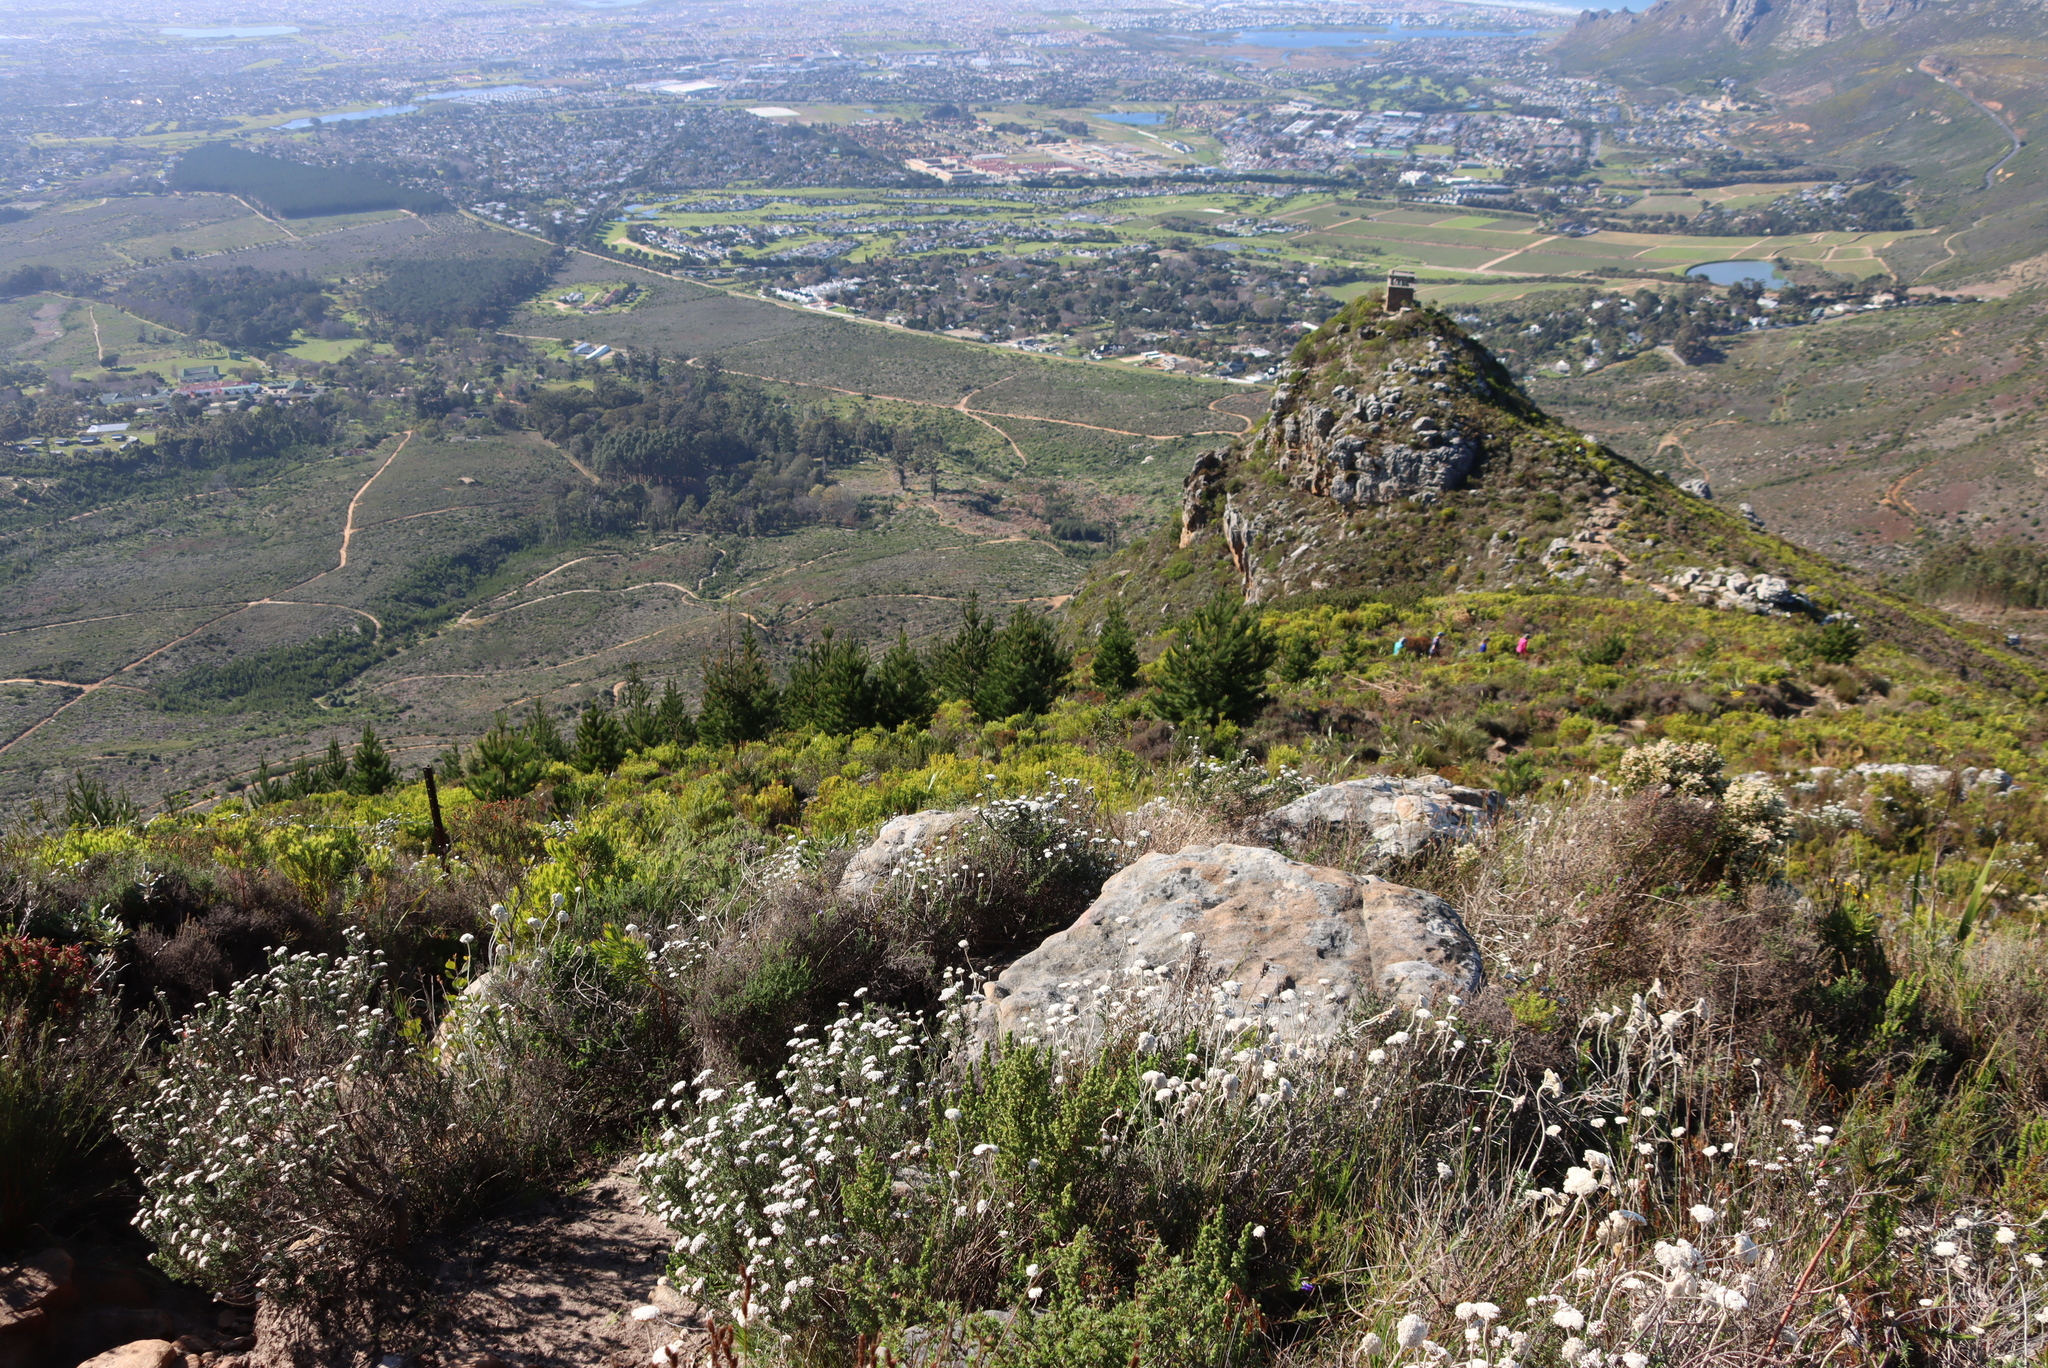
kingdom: Plantae
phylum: Tracheophyta
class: Magnoliopsida
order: Asterales
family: Asteraceae
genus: Anaxeton
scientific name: Anaxeton arborescens
